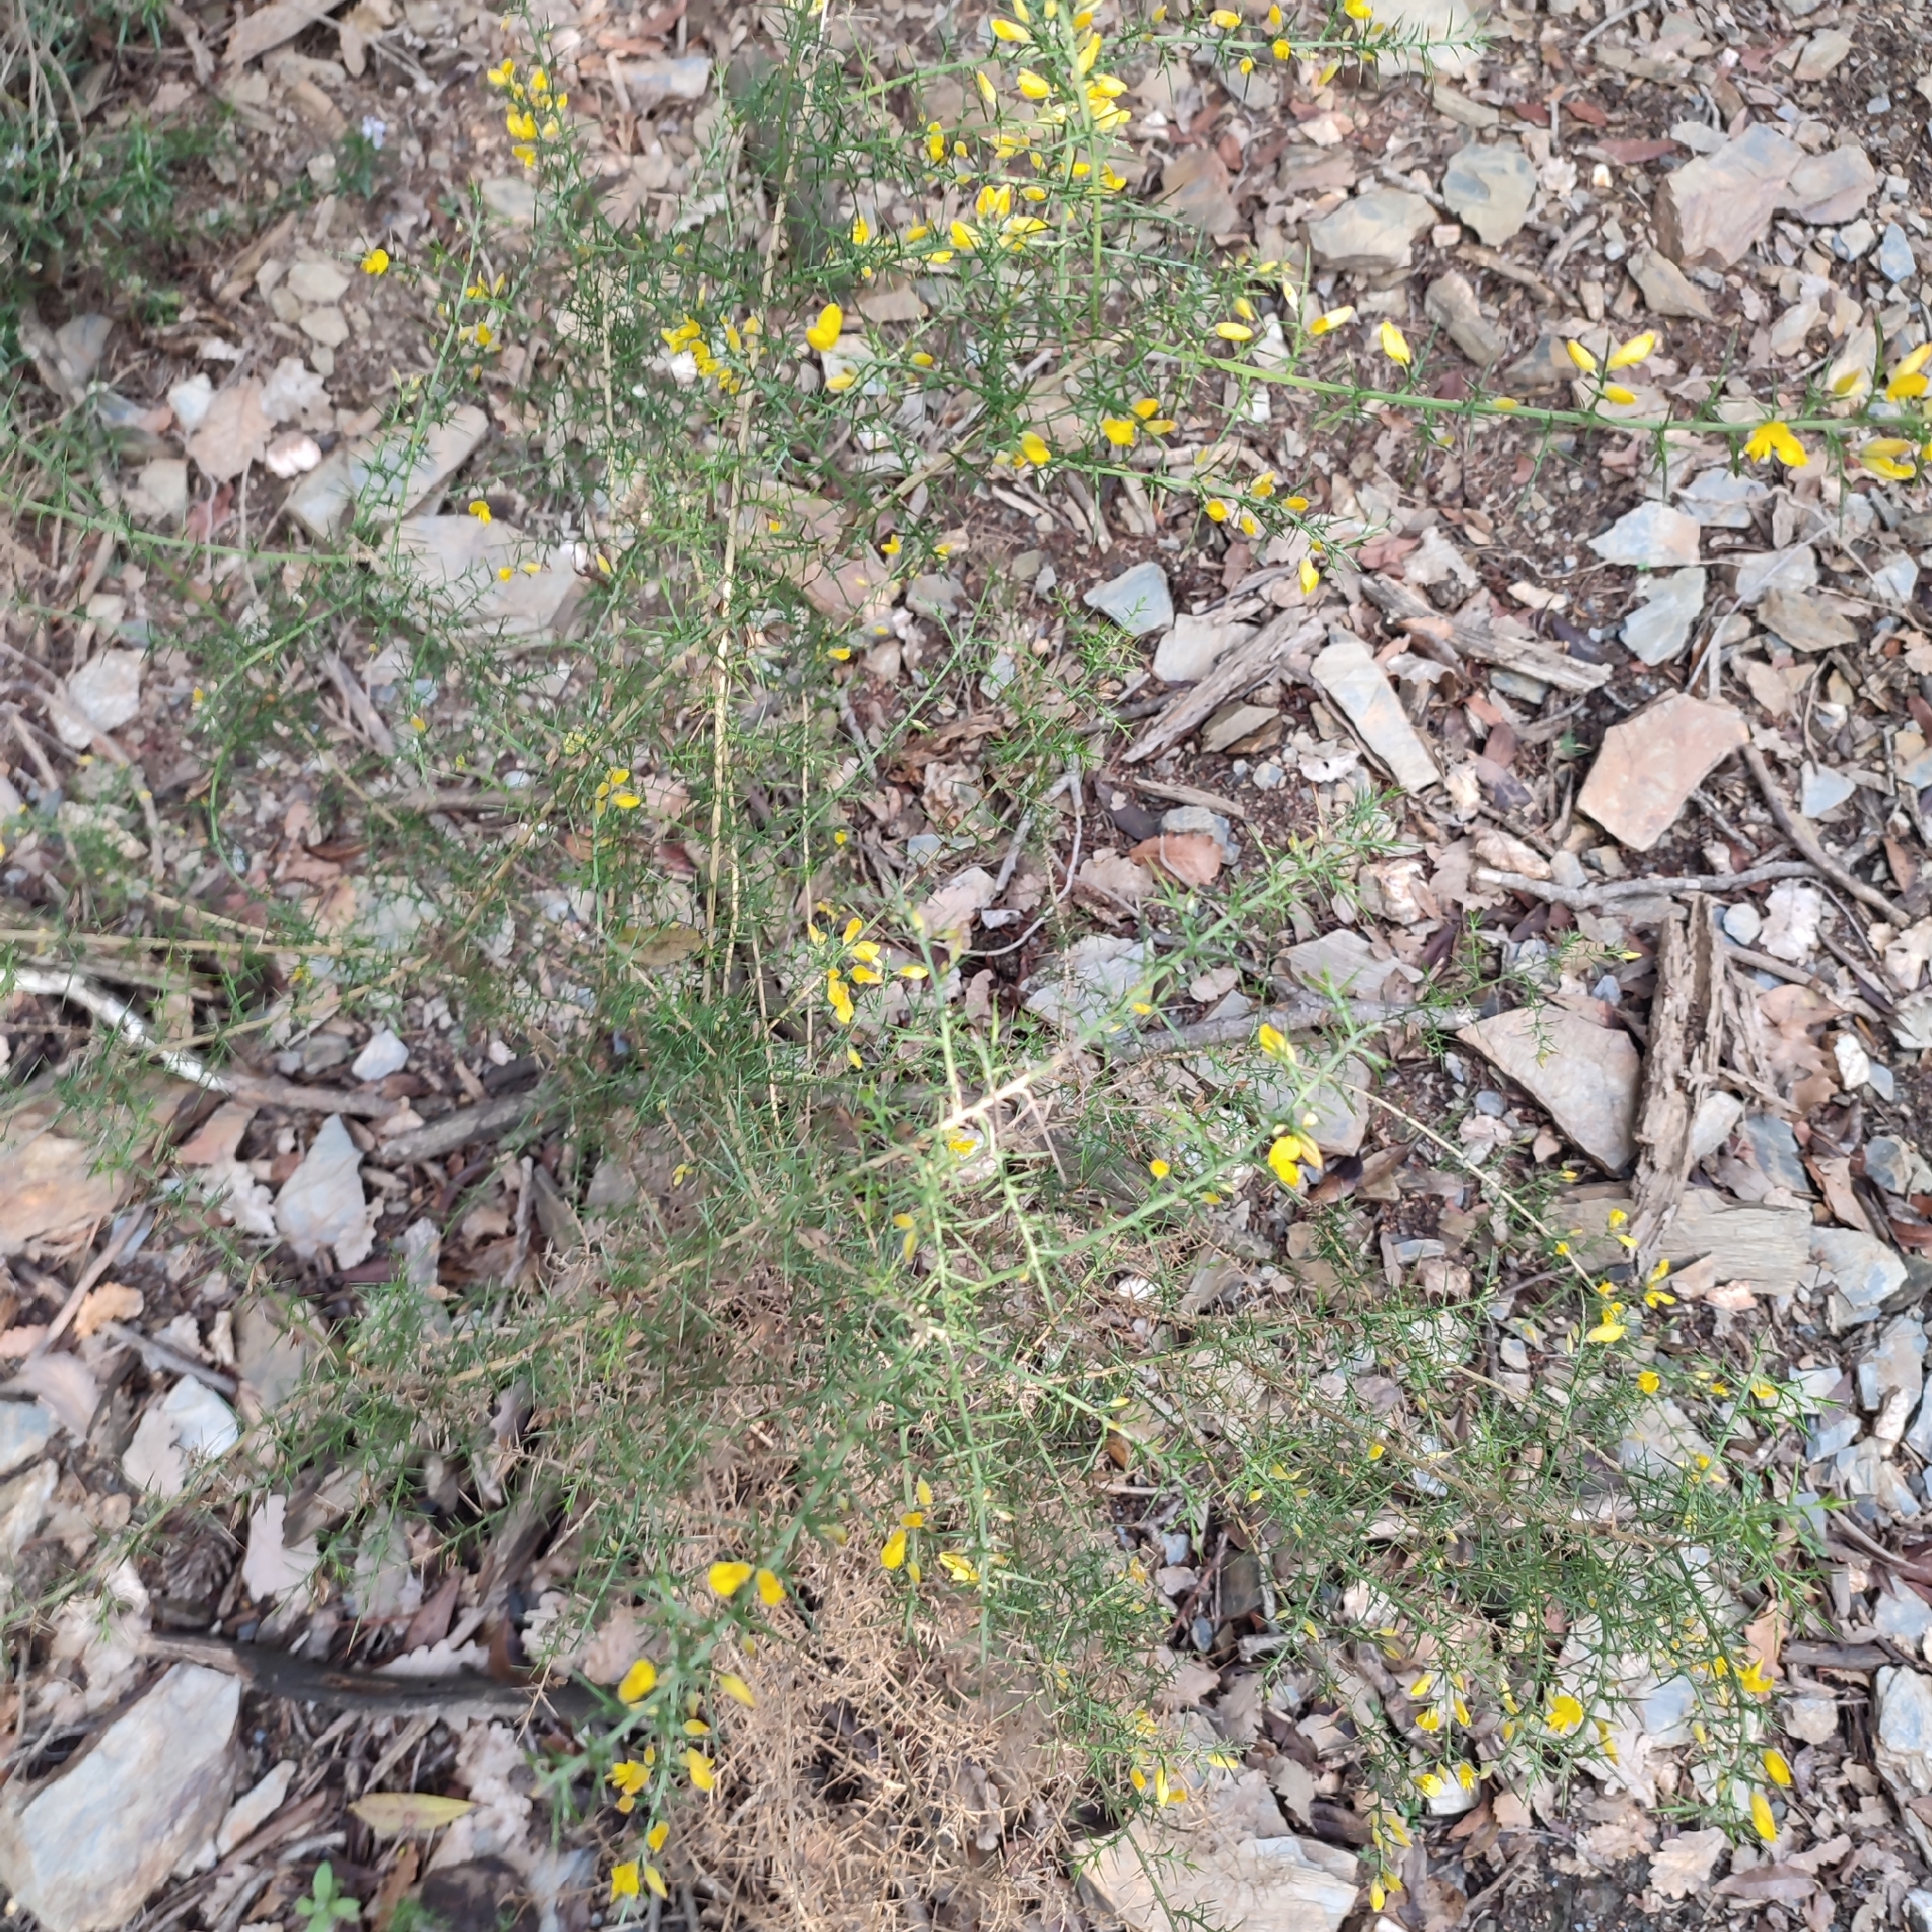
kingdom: Plantae
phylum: Tracheophyta
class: Magnoliopsida
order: Fabales
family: Fabaceae
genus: Ulex
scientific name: Ulex parviflorus
